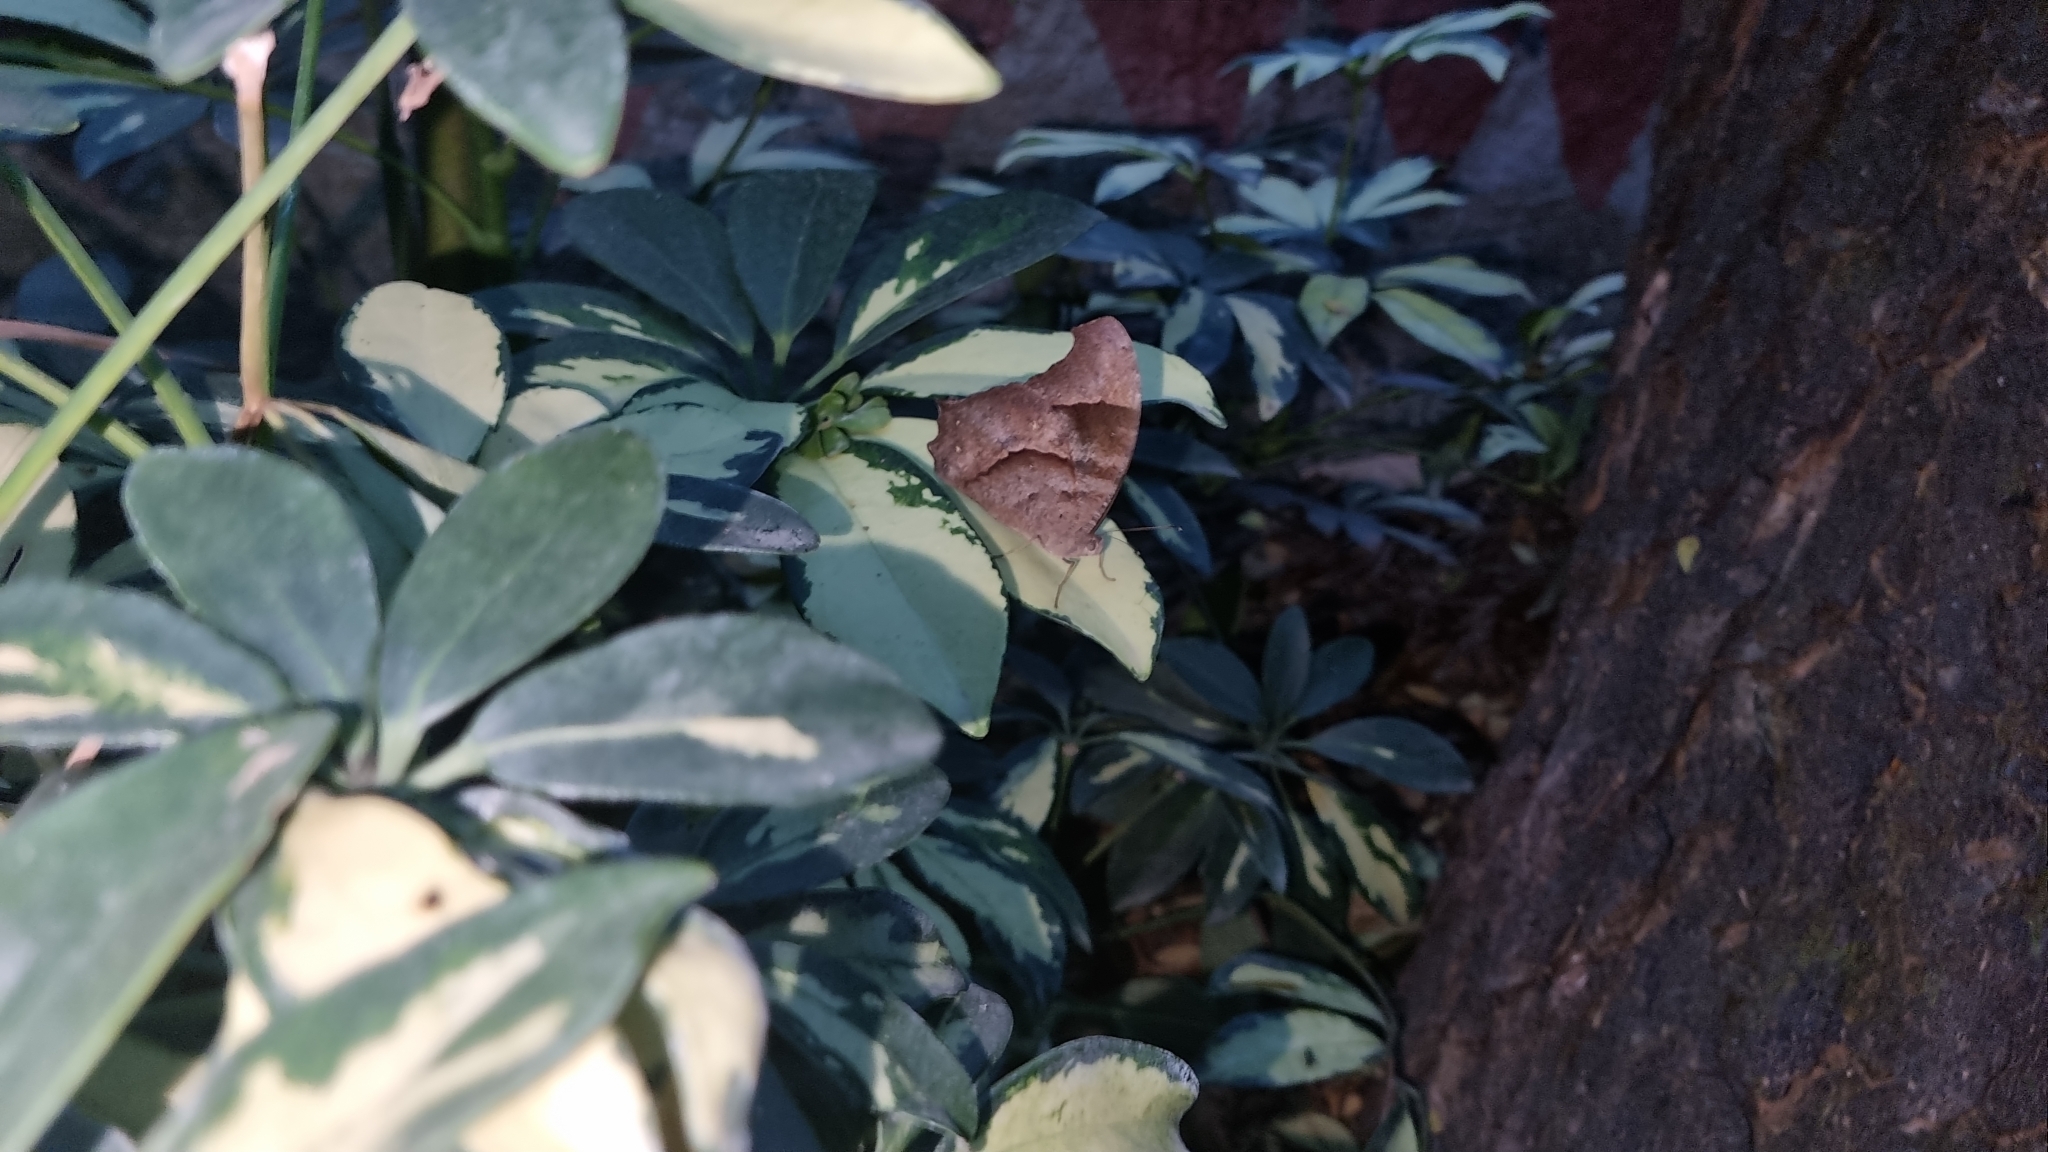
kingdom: Animalia
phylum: Arthropoda
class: Insecta
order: Lepidoptera
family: Nymphalidae
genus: Melanitis
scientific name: Melanitis leda
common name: Twilight brown
